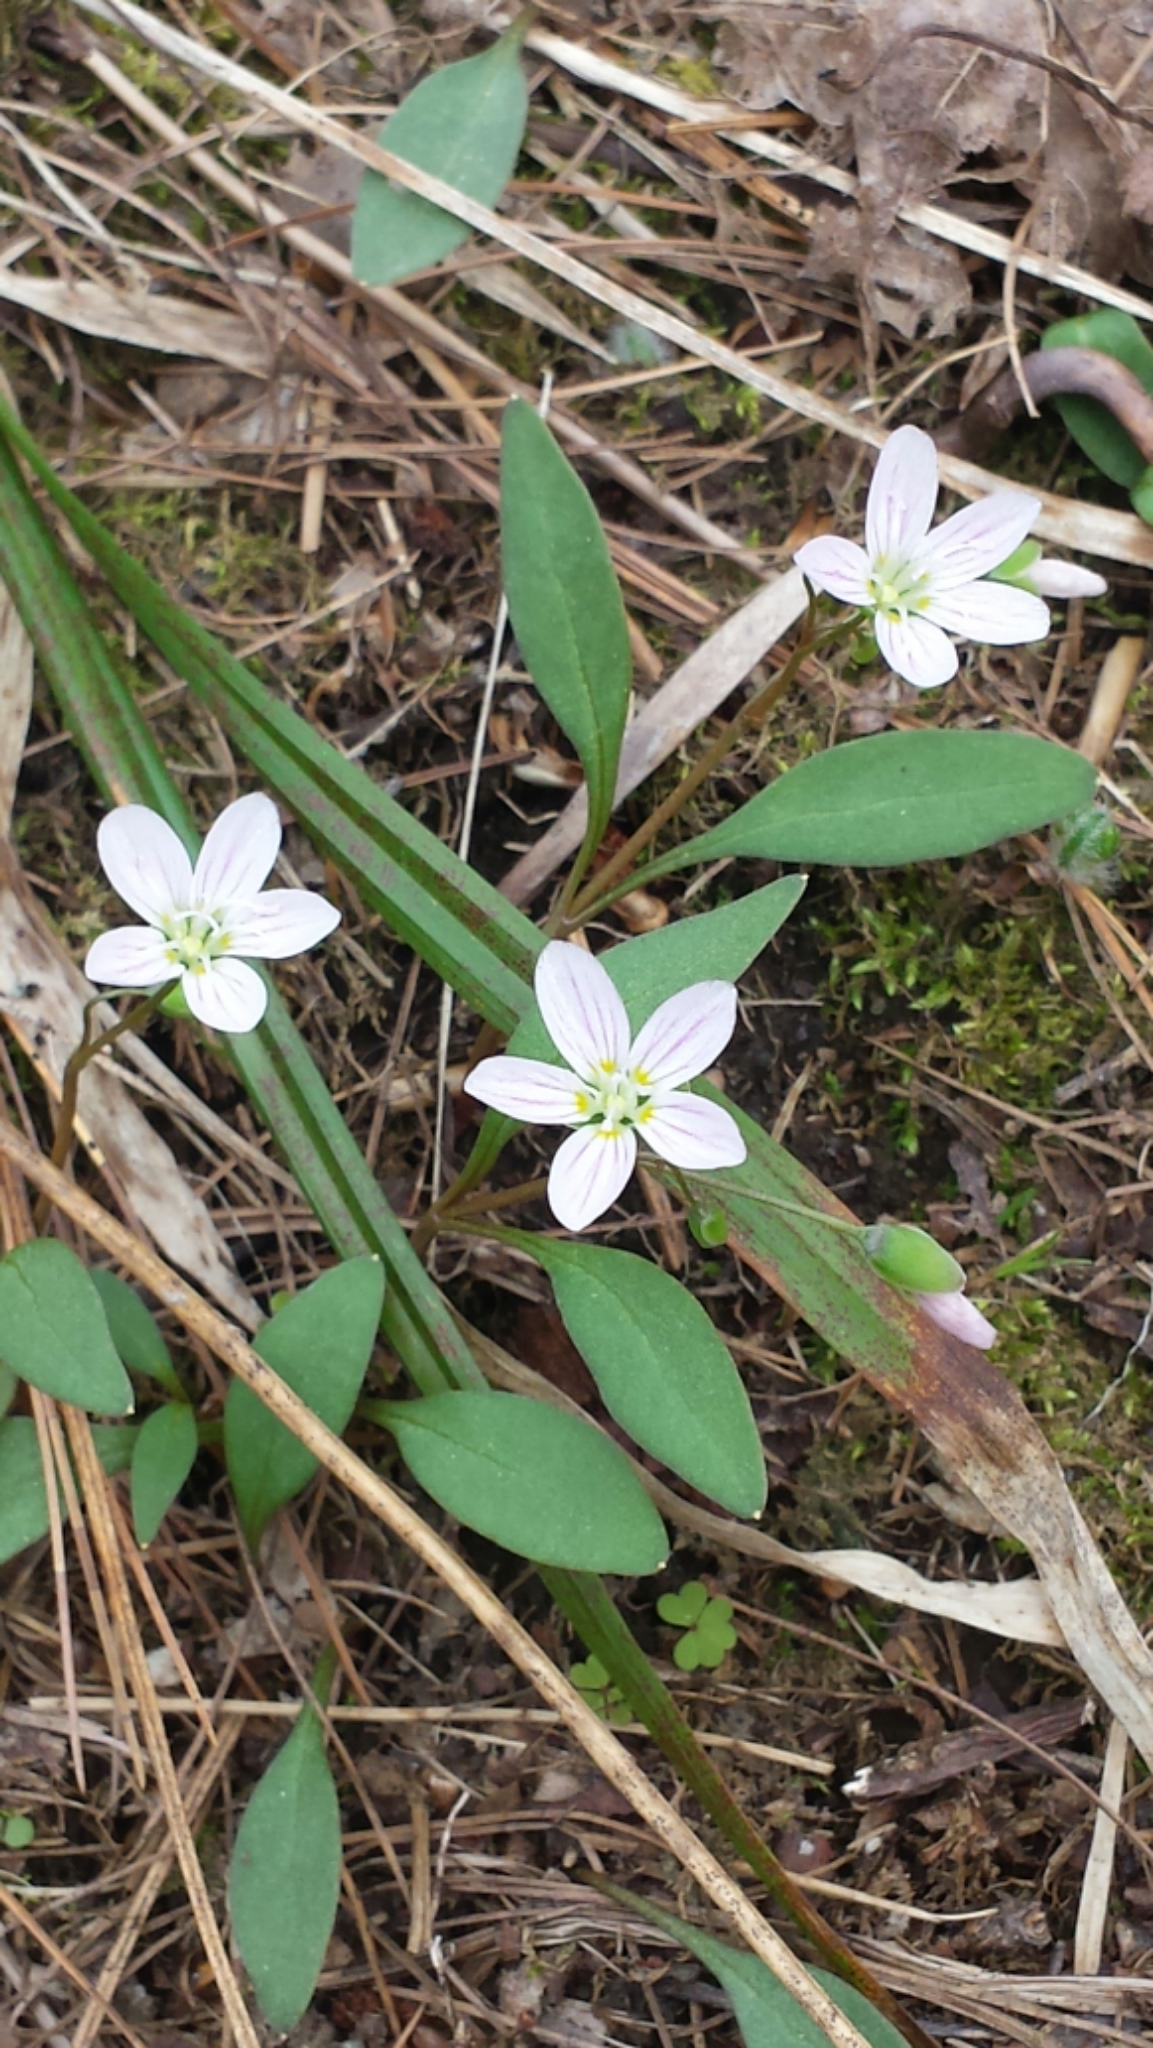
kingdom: Plantae
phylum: Tracheophyta
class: Magnoliopsida
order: Caryophyllales
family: Montiaceae
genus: Claytonia
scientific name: Claytonia caroliniana
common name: Carolina spring beauty
